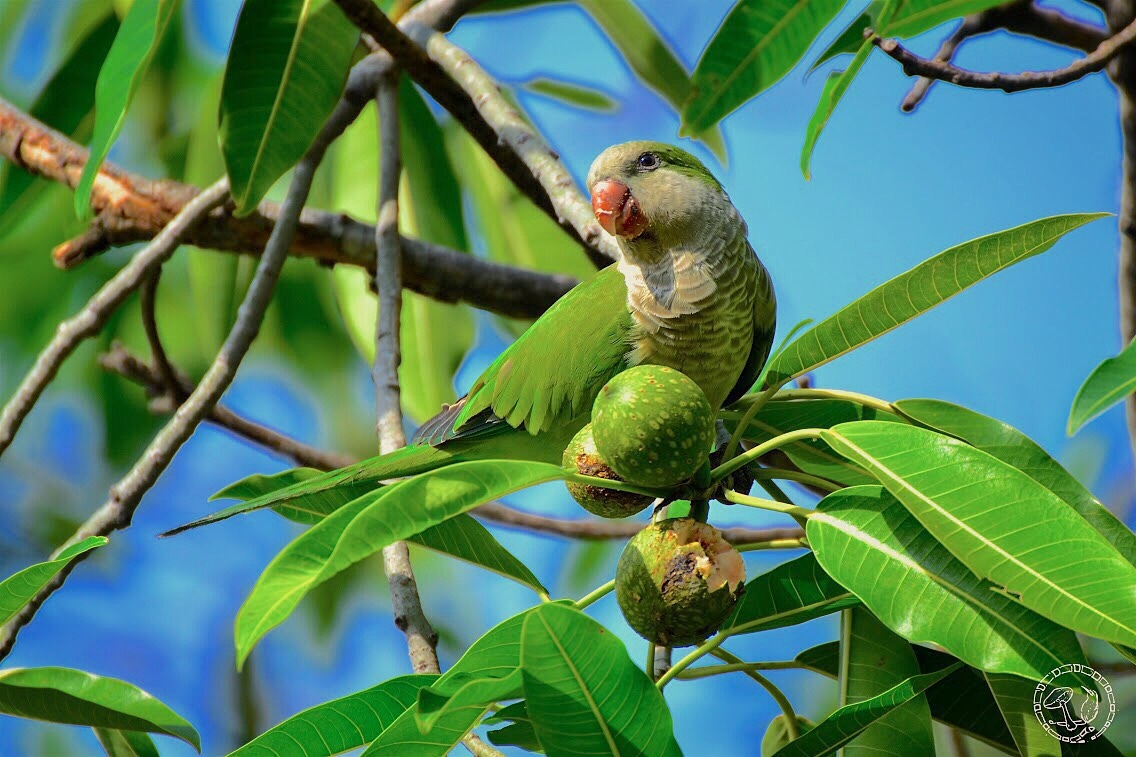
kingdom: Animalia
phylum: Chordata
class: Aves
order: Psittaciformes
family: Psittacidae
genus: Myiopsitta
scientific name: Myiopsitta monachus
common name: Monk parakeet
